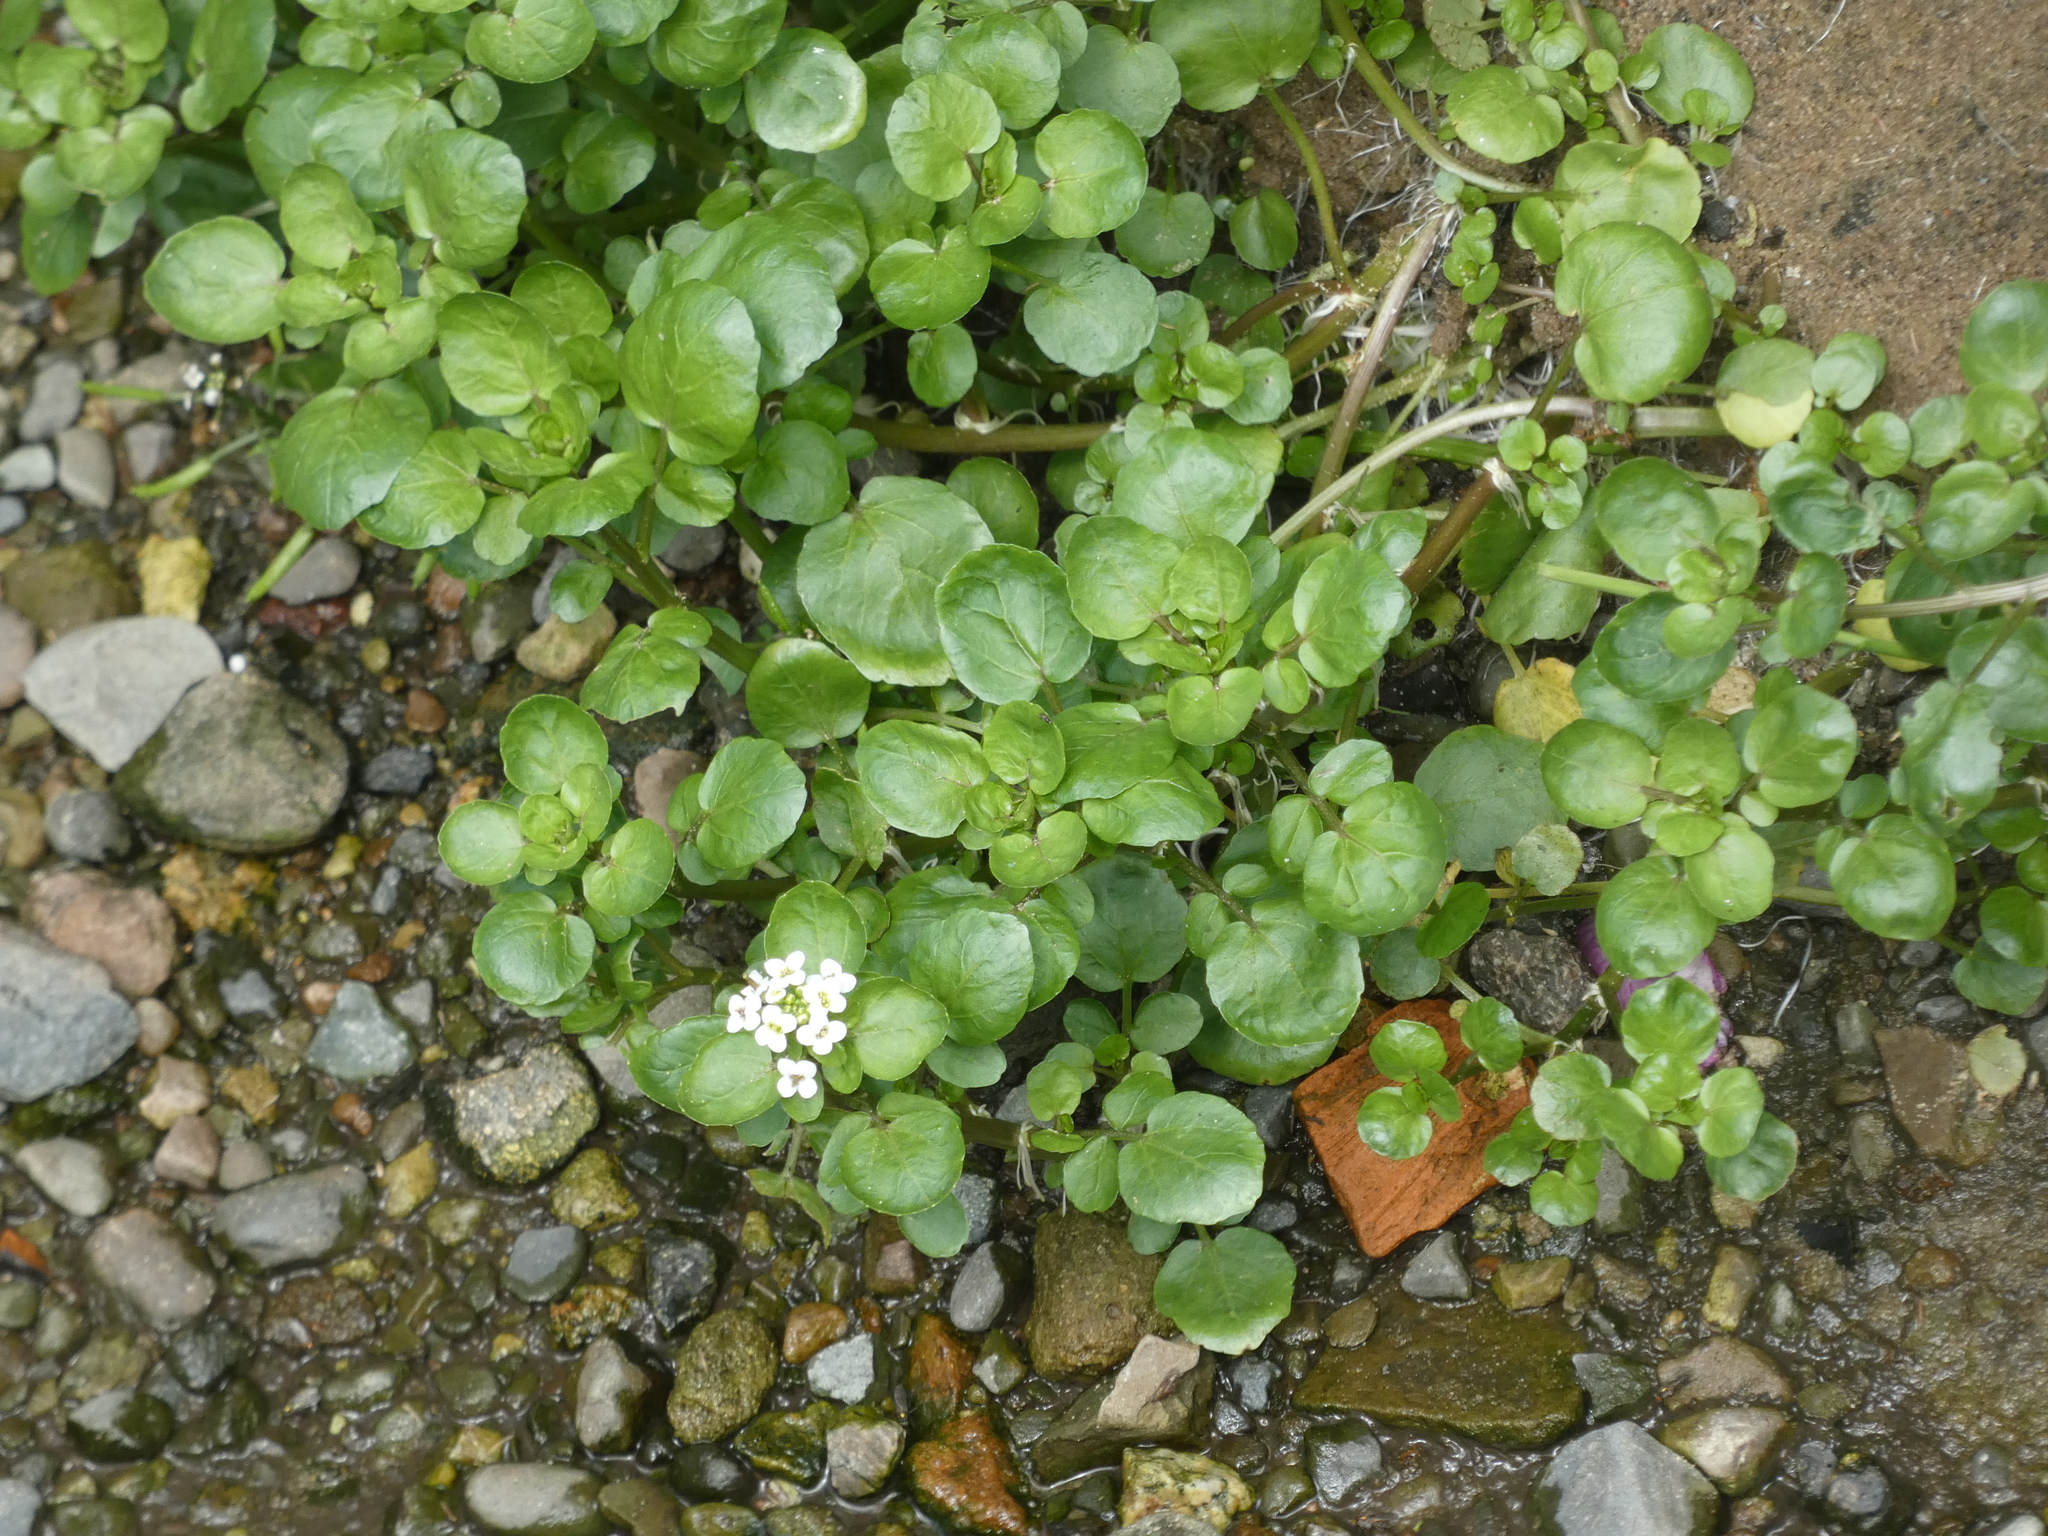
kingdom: Plantae
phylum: Tracheophyta
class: Magnoliopsida
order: Brassicales
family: Brassicaceae
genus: Nasturtium
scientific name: Nasturtium officinale
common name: Watercress
